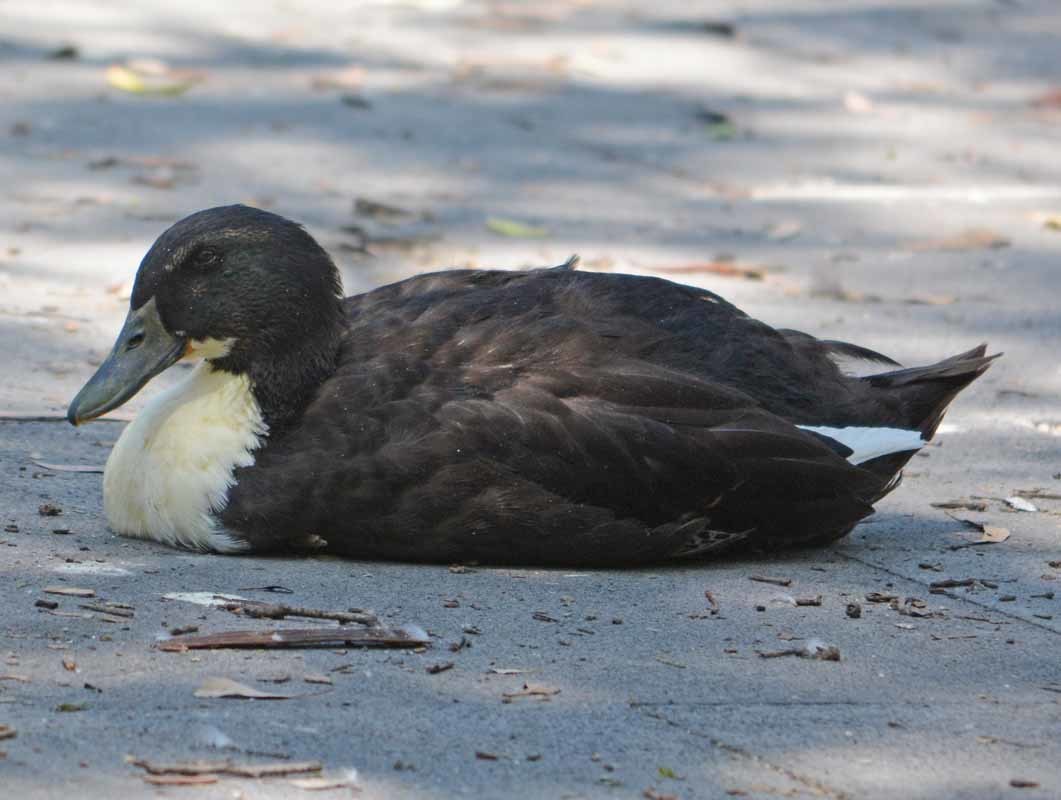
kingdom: Animalia
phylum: Chordata
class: Aves
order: Anseriformes
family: Anatidae
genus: Anas
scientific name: Anas platyrhynchos
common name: Mallard
